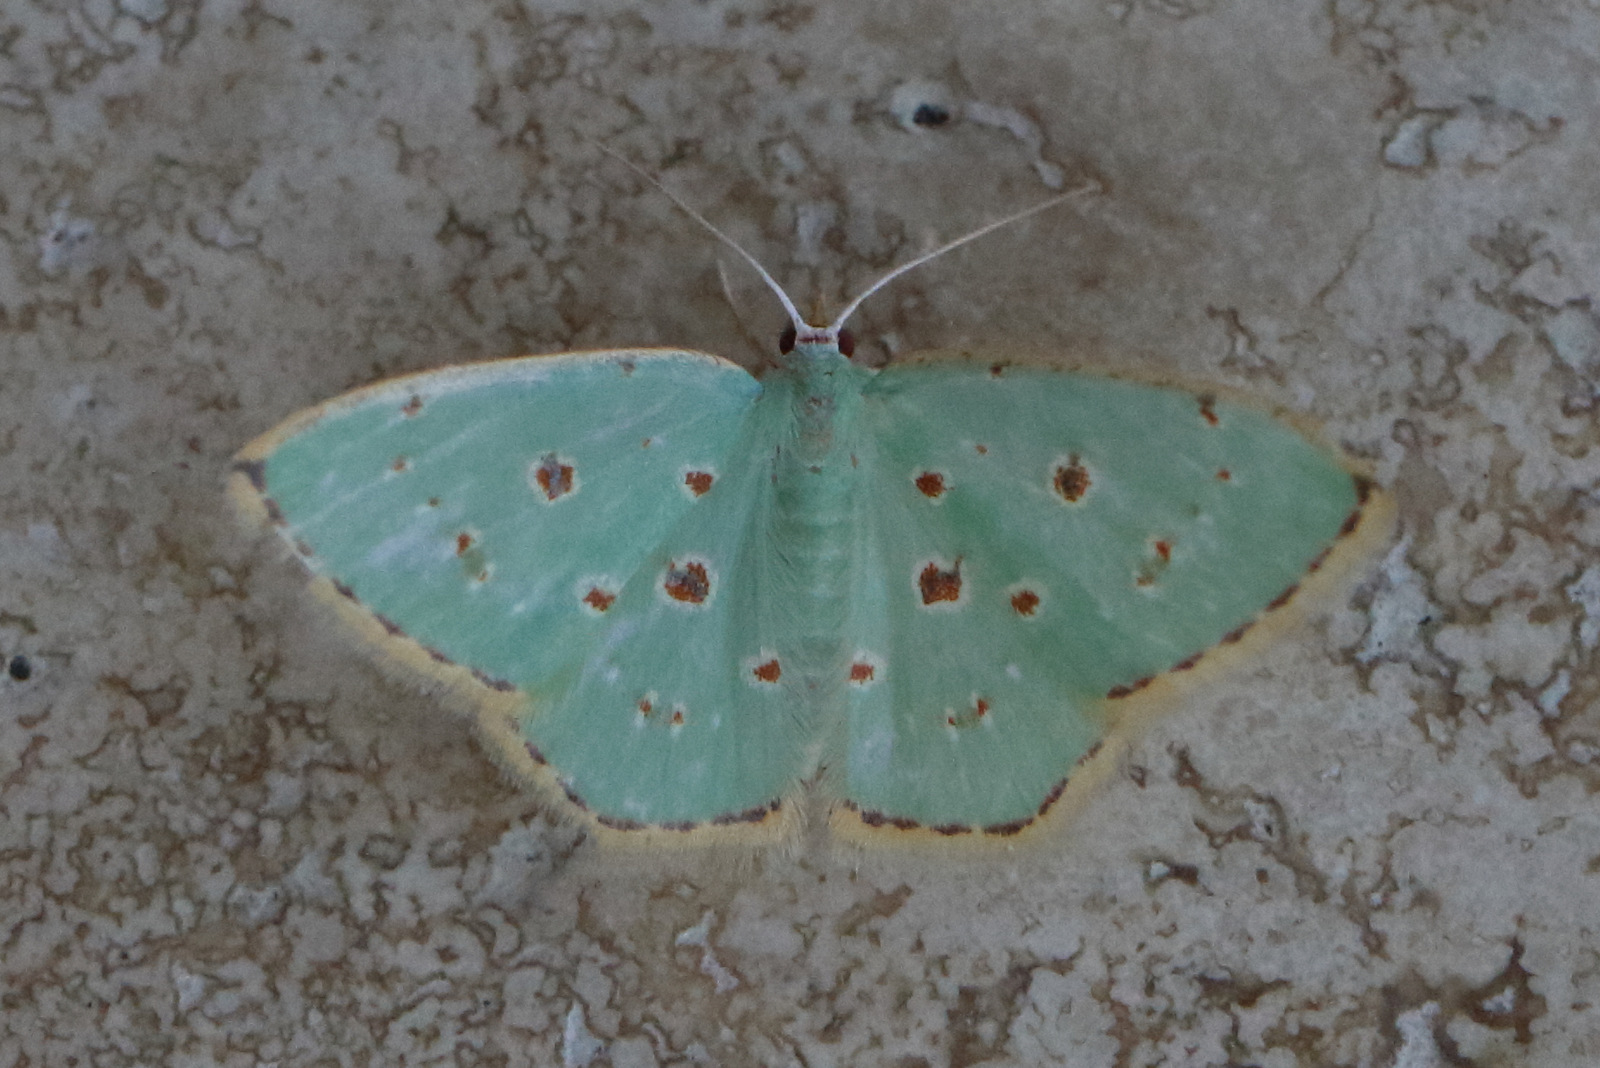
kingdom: Animalia
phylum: Arthropoda
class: Insecta
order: Lepidoptera
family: Geometridae
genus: Comostola
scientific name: Comostola laesaria
